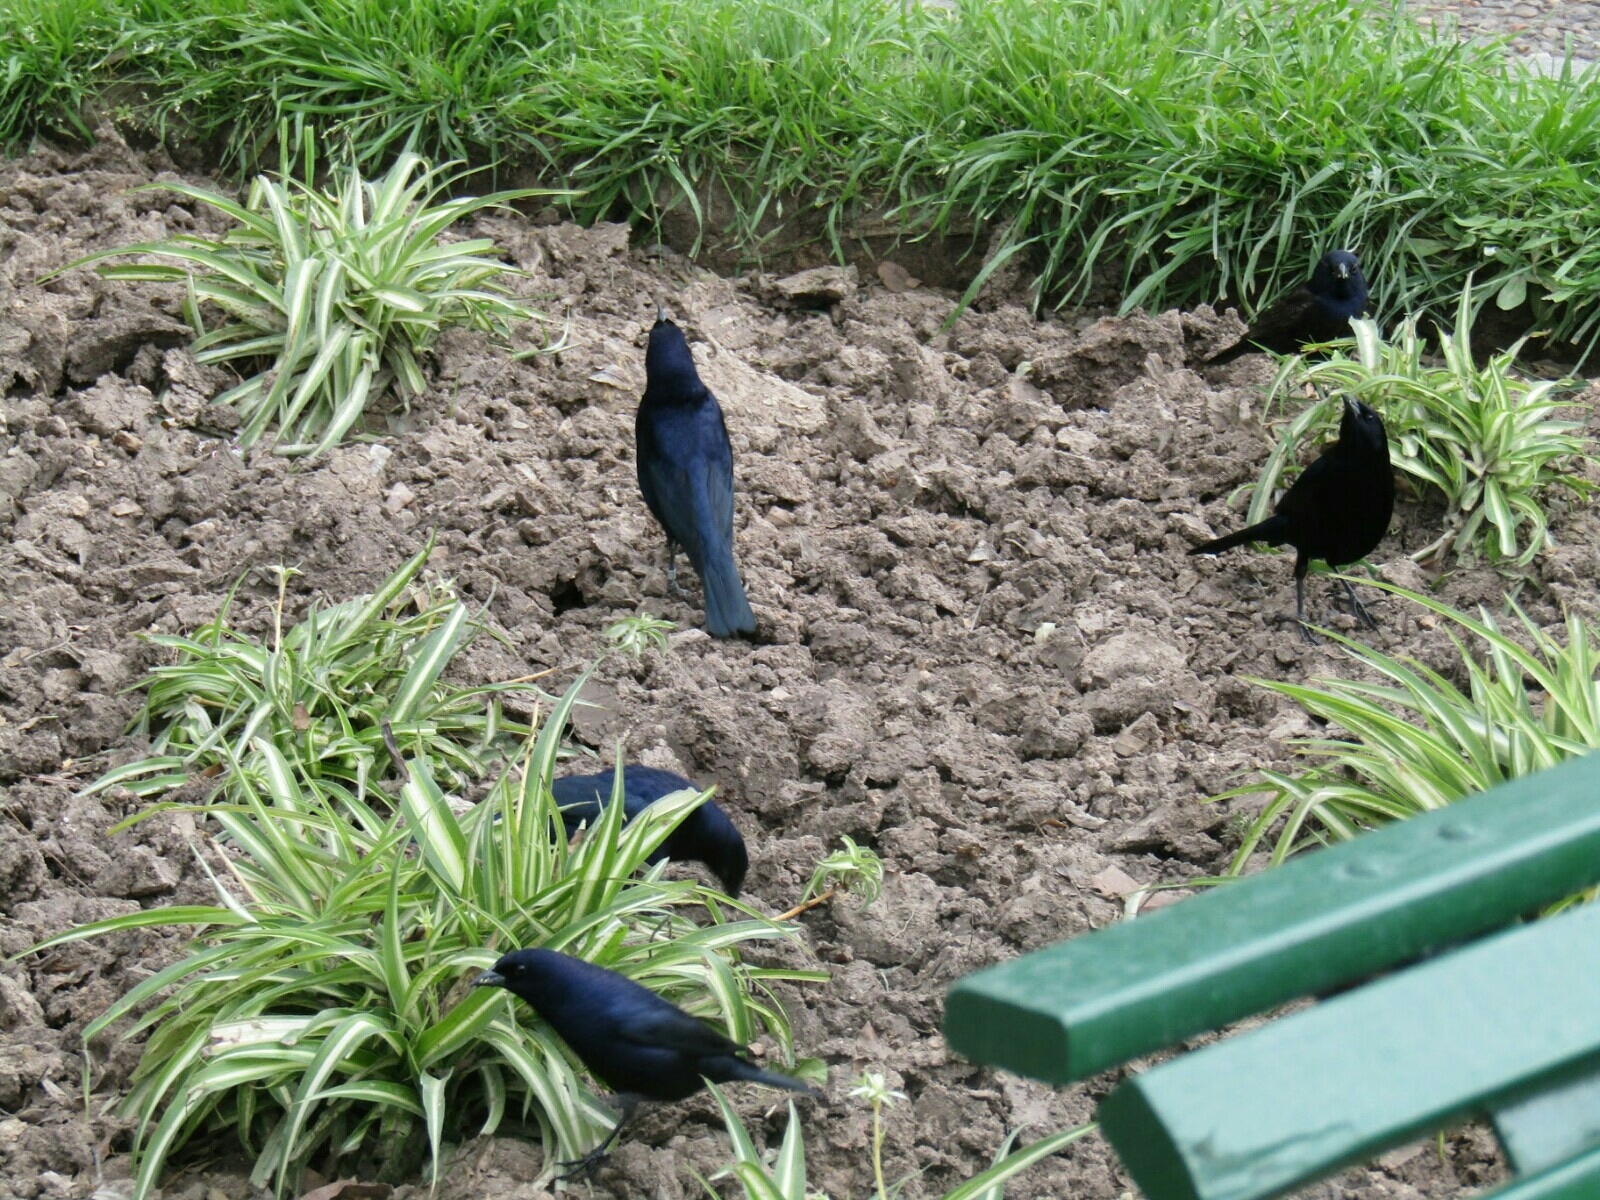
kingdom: Animalia
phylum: Chordata
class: Aves
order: Passeriformes
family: Icteridae
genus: Molothrus
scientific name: Molothrus bonariensis
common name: Shiny cowbird
